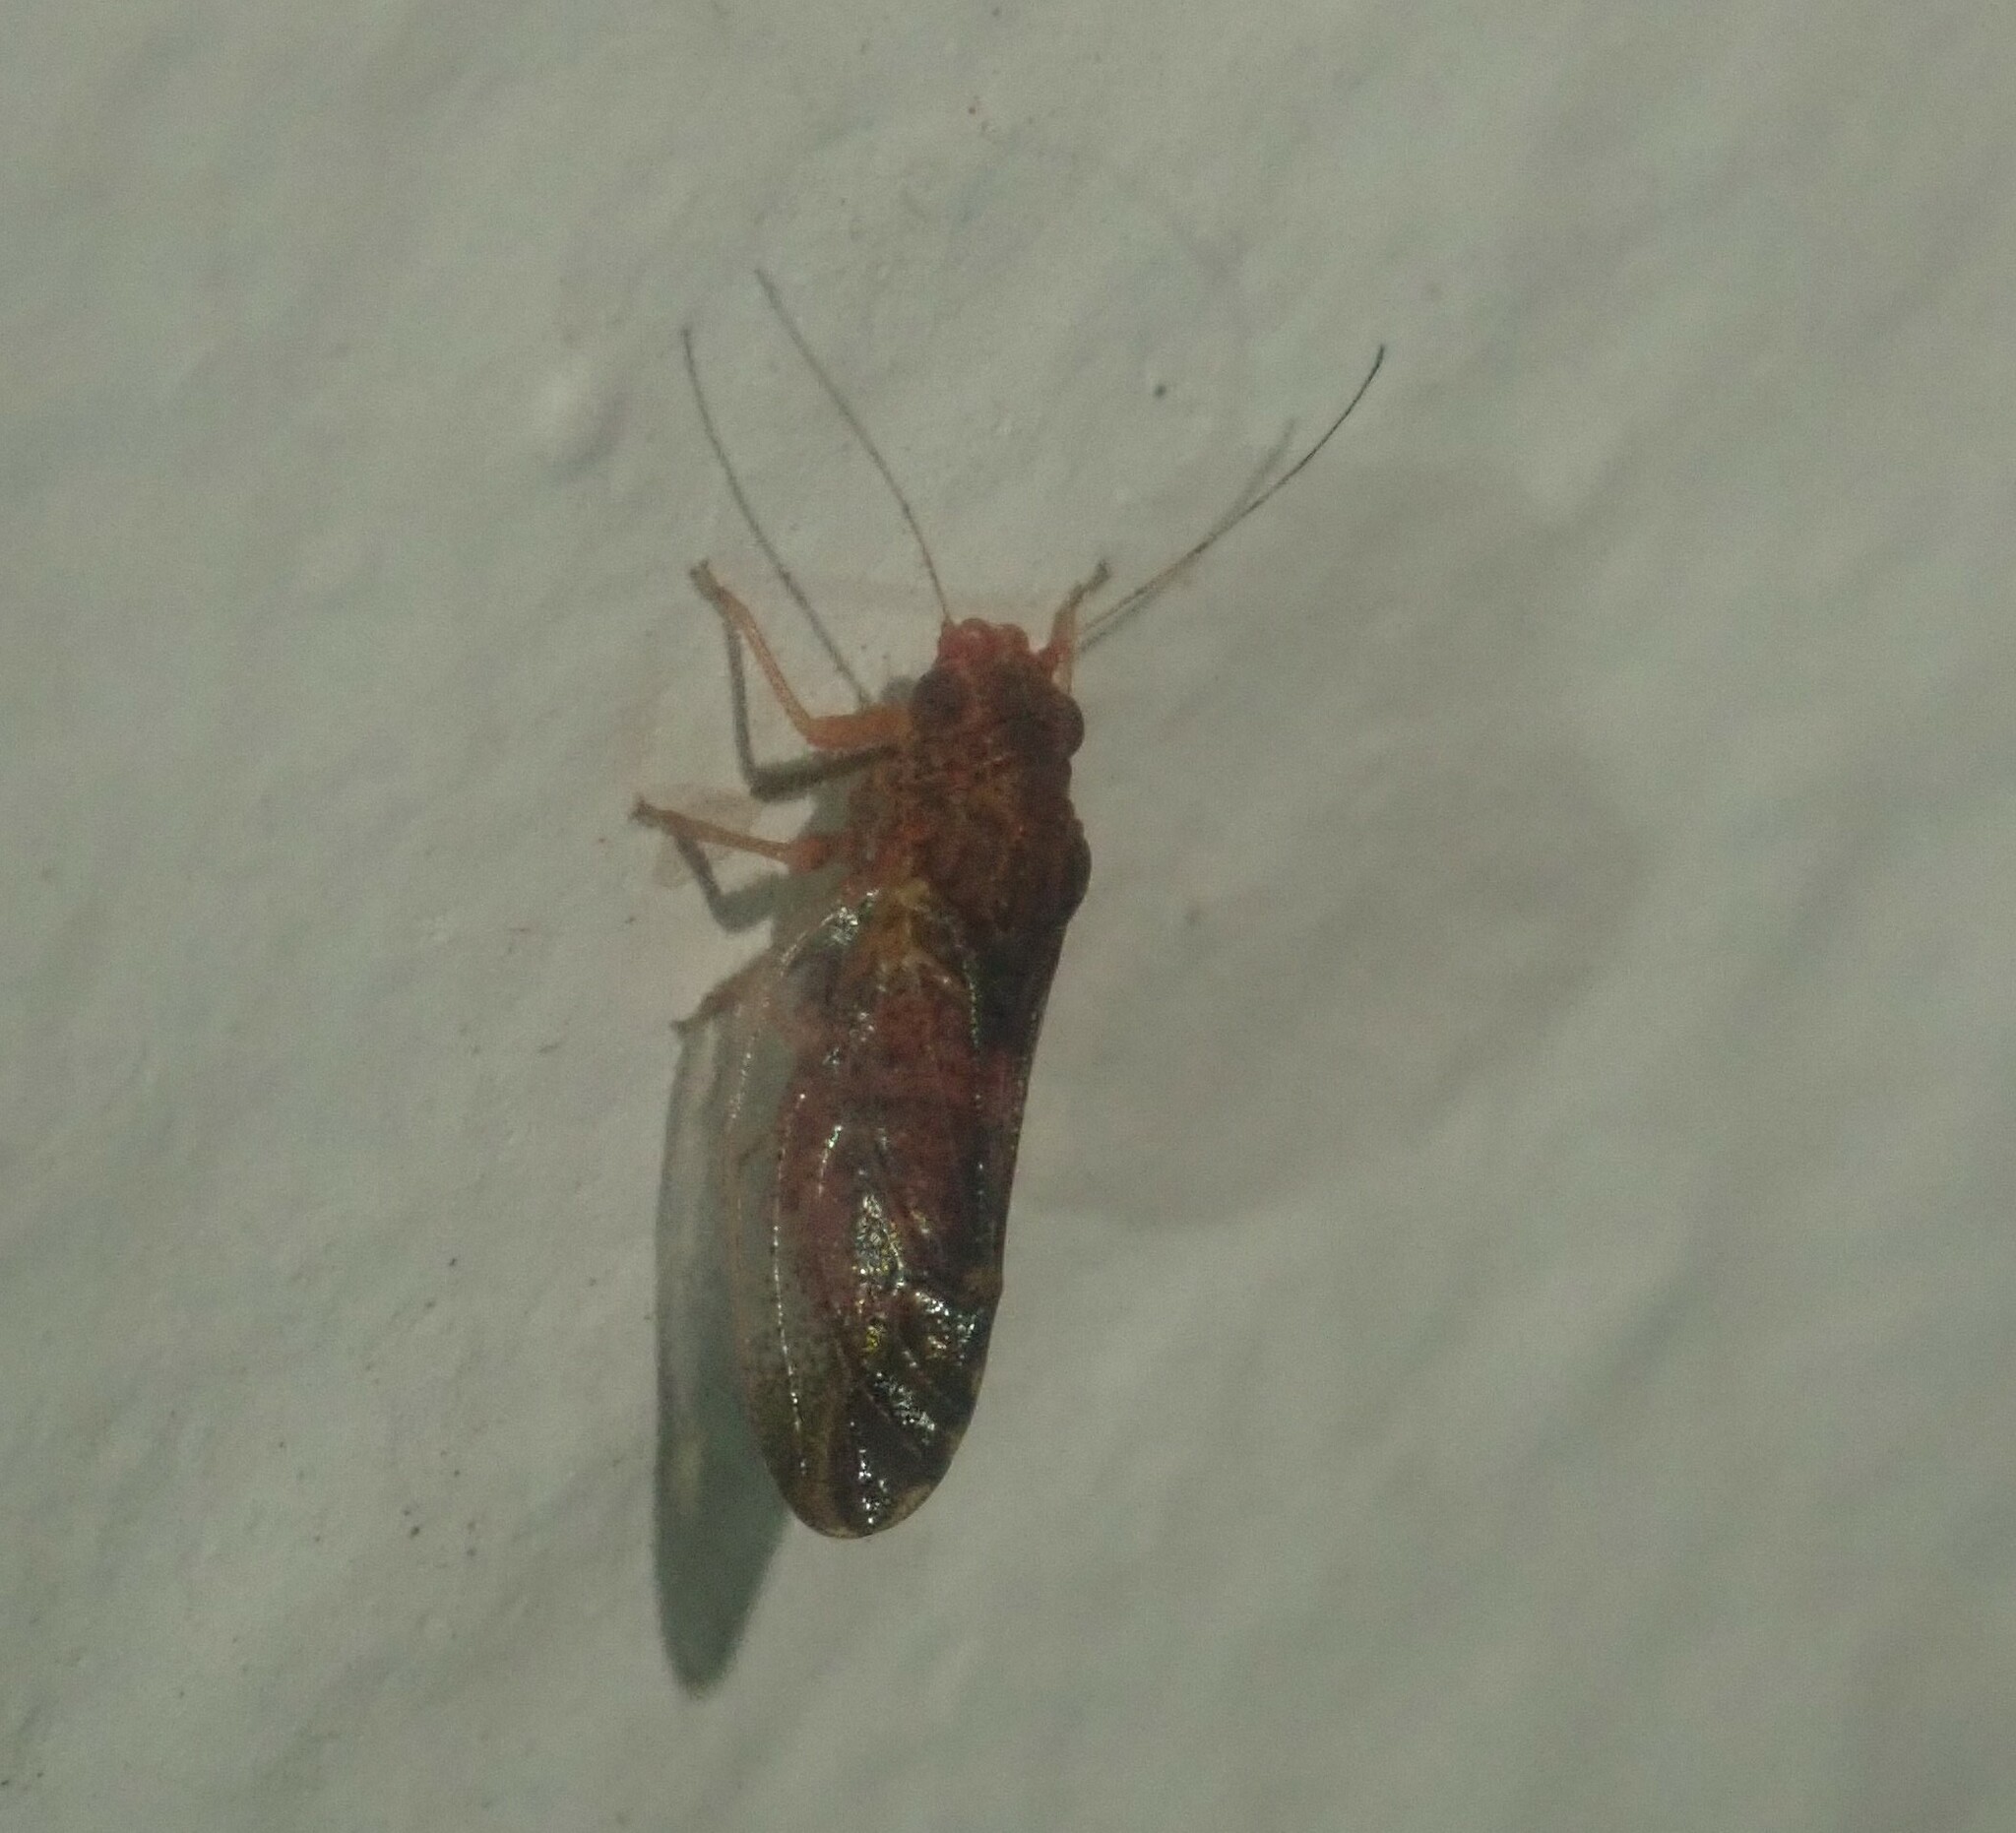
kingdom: Animalia
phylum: Arthropoda
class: Insecta
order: Hemiptera
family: Psyllidae
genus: Retroacizzia
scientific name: Retroacizzia mopani
